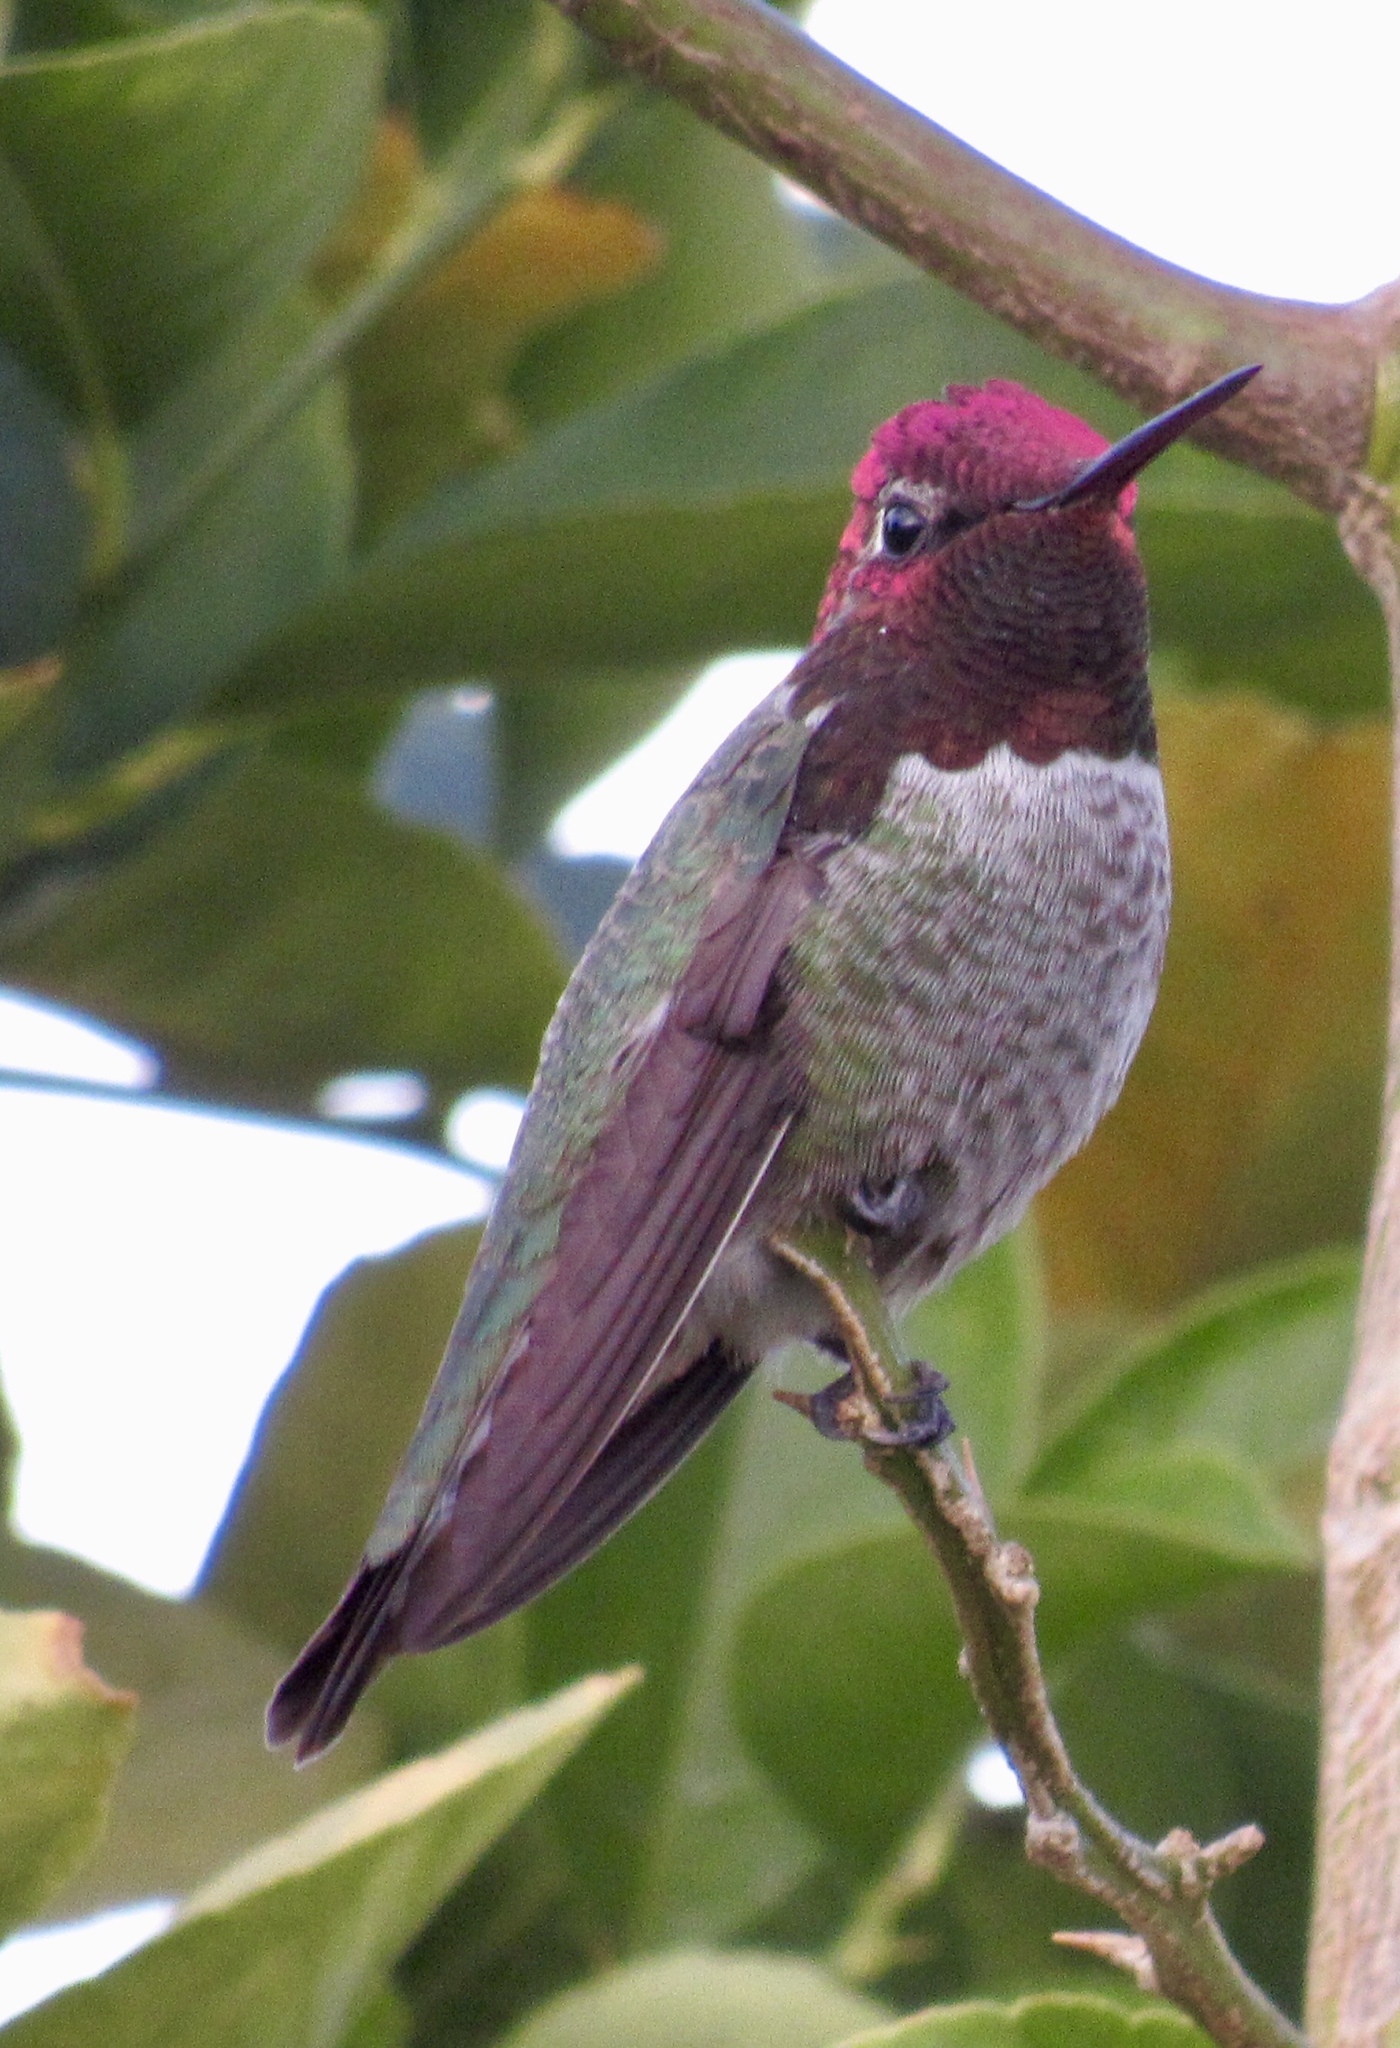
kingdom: Animalia
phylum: Chordata
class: Aves
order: Apodiformes
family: Trochilidae
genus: Calypte
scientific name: Calypte anna
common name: Anna's hummingbird
